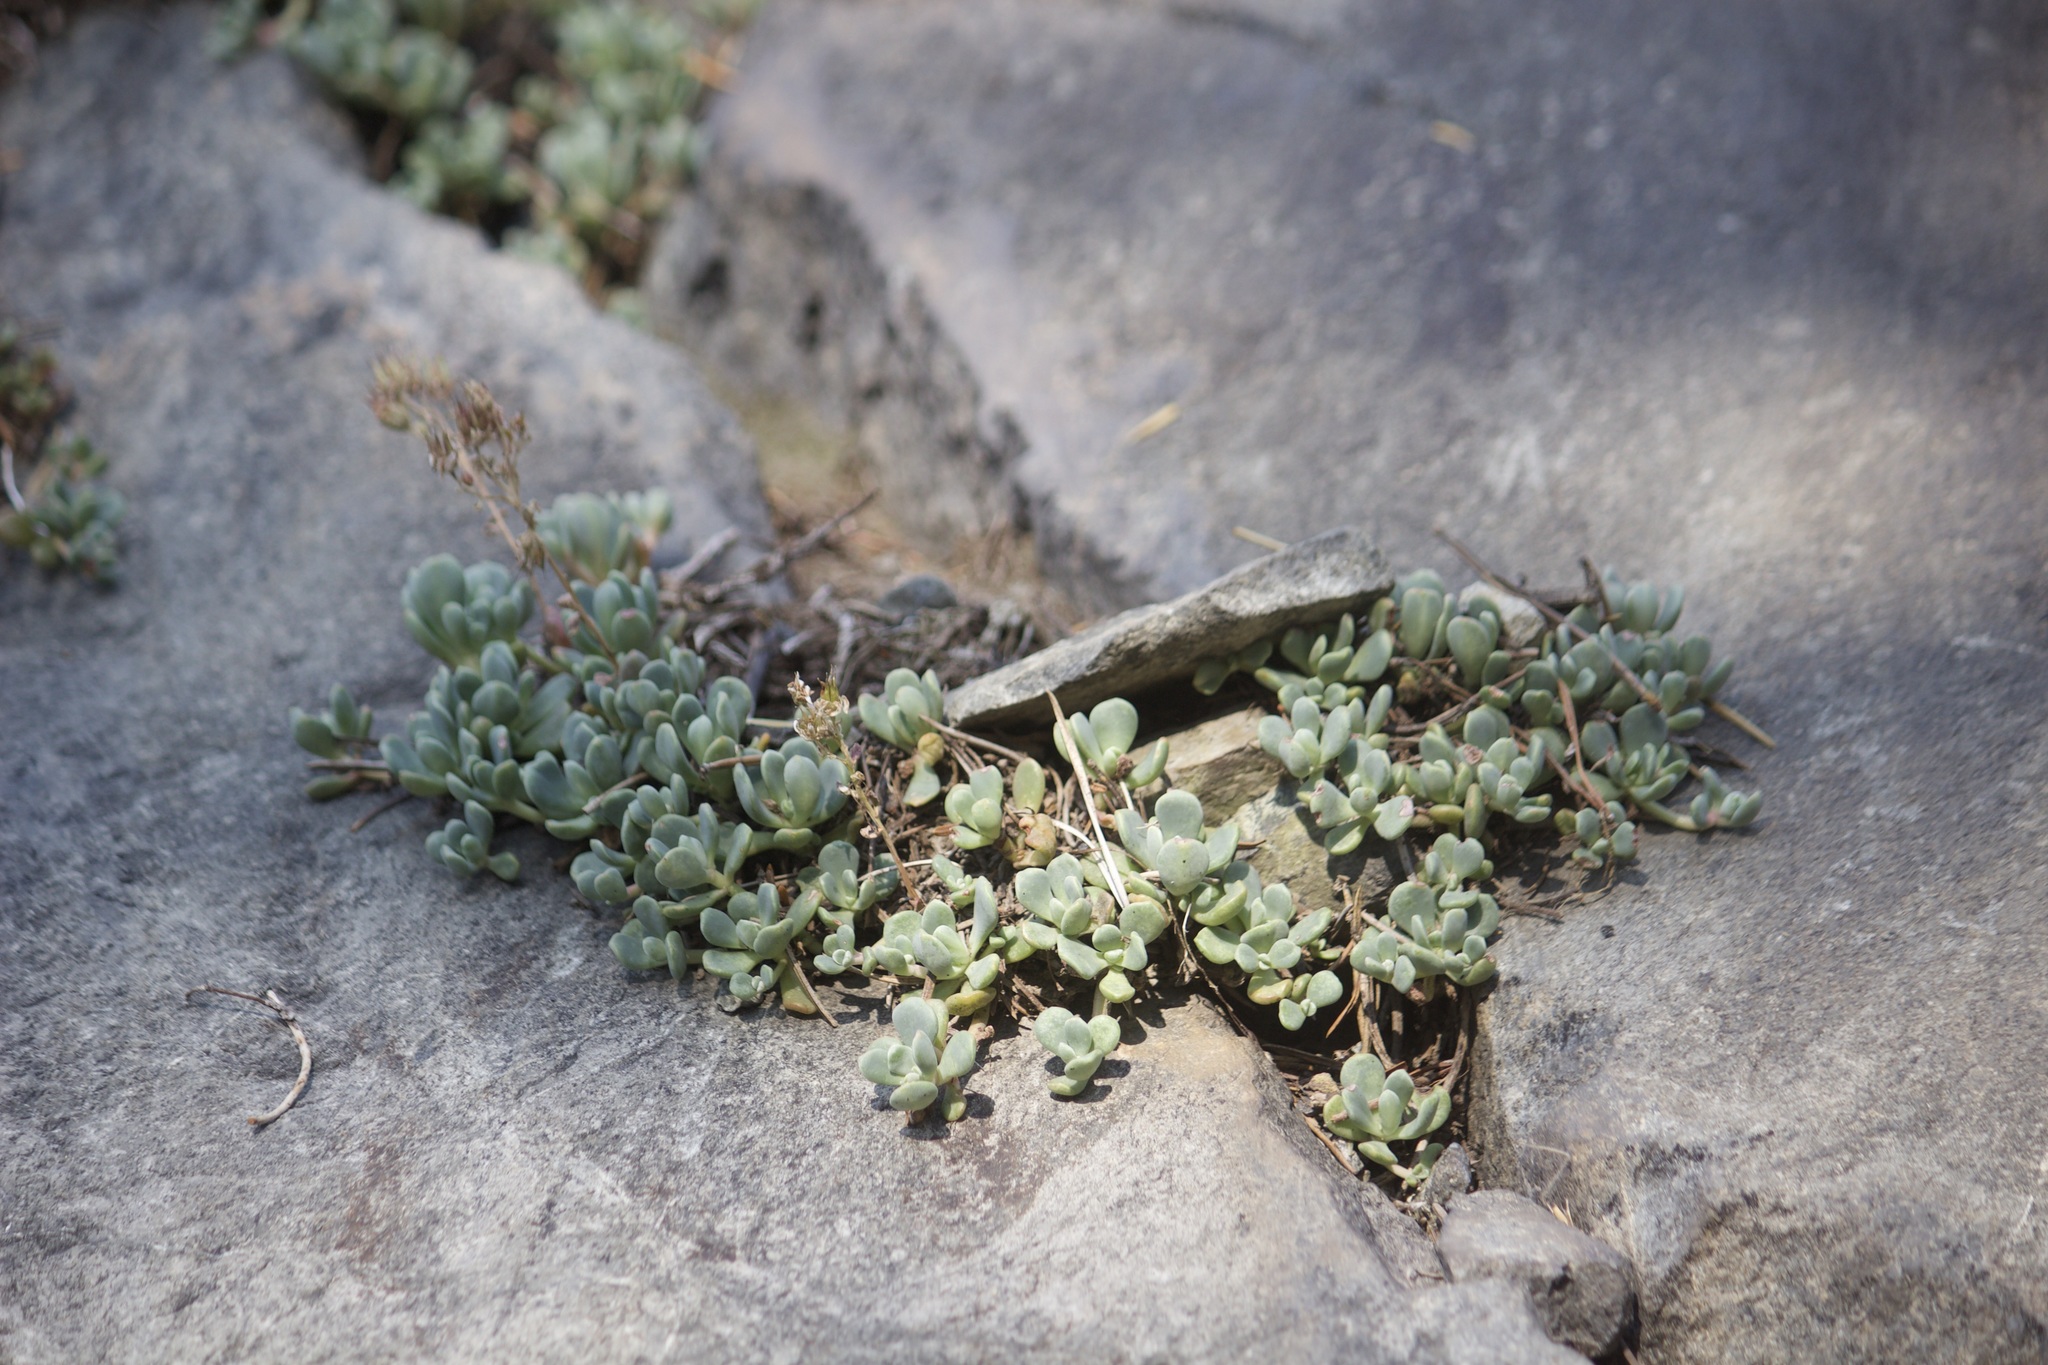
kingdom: Plantae
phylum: Tracheophyta
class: Magnoliopsida
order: Saxifragales
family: Crassulaceae
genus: Sedum
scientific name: Sedum obtusatum
